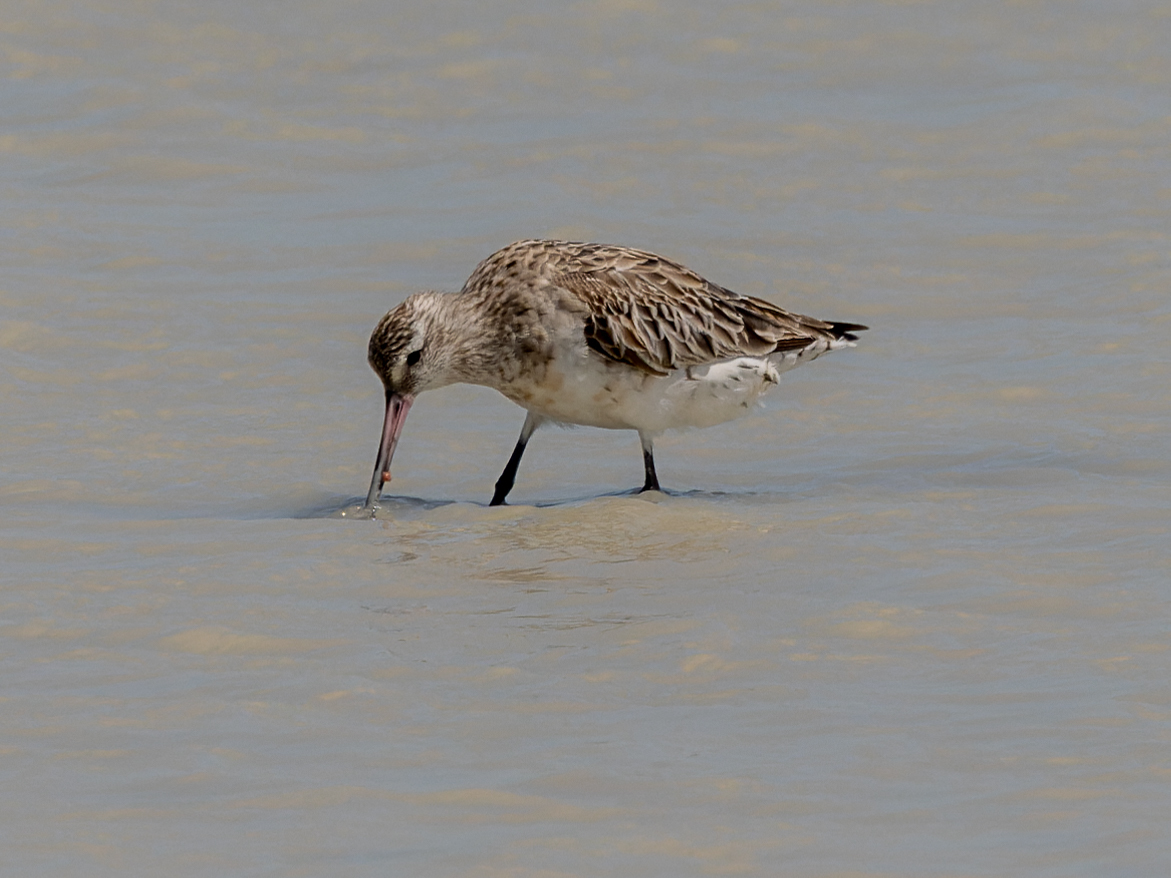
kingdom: Animalia
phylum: Chordata
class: Aves
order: Charadriiformes
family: Scolopacidae
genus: Limosa
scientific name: Limosa lapponica
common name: Bar-tailed godwit
